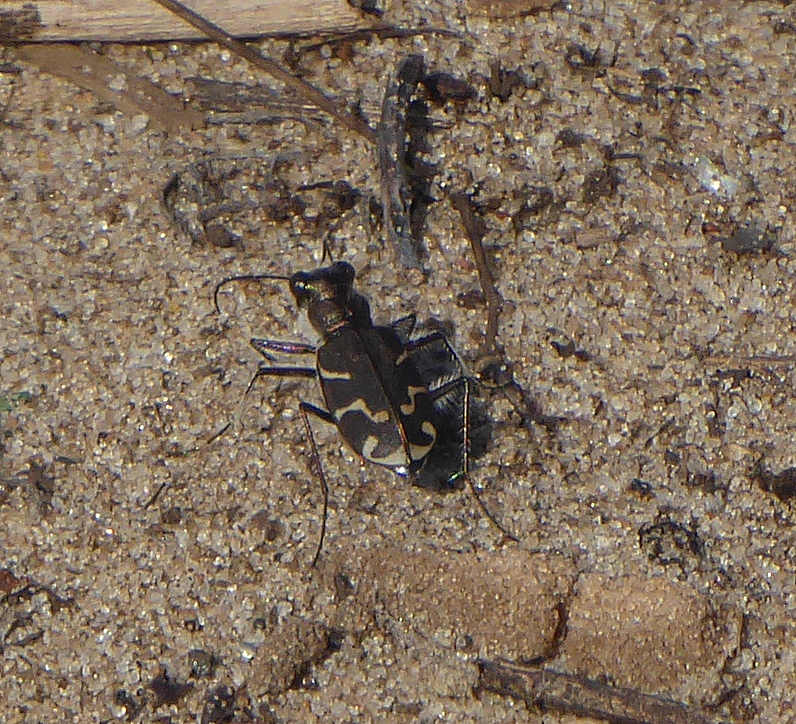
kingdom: Animalia
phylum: Arthropoda
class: Insecta
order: Coleoptera
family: Carabidae
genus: Cicindela
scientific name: Cicindela tranquebarica
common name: Oblique-lined tiger beetle
